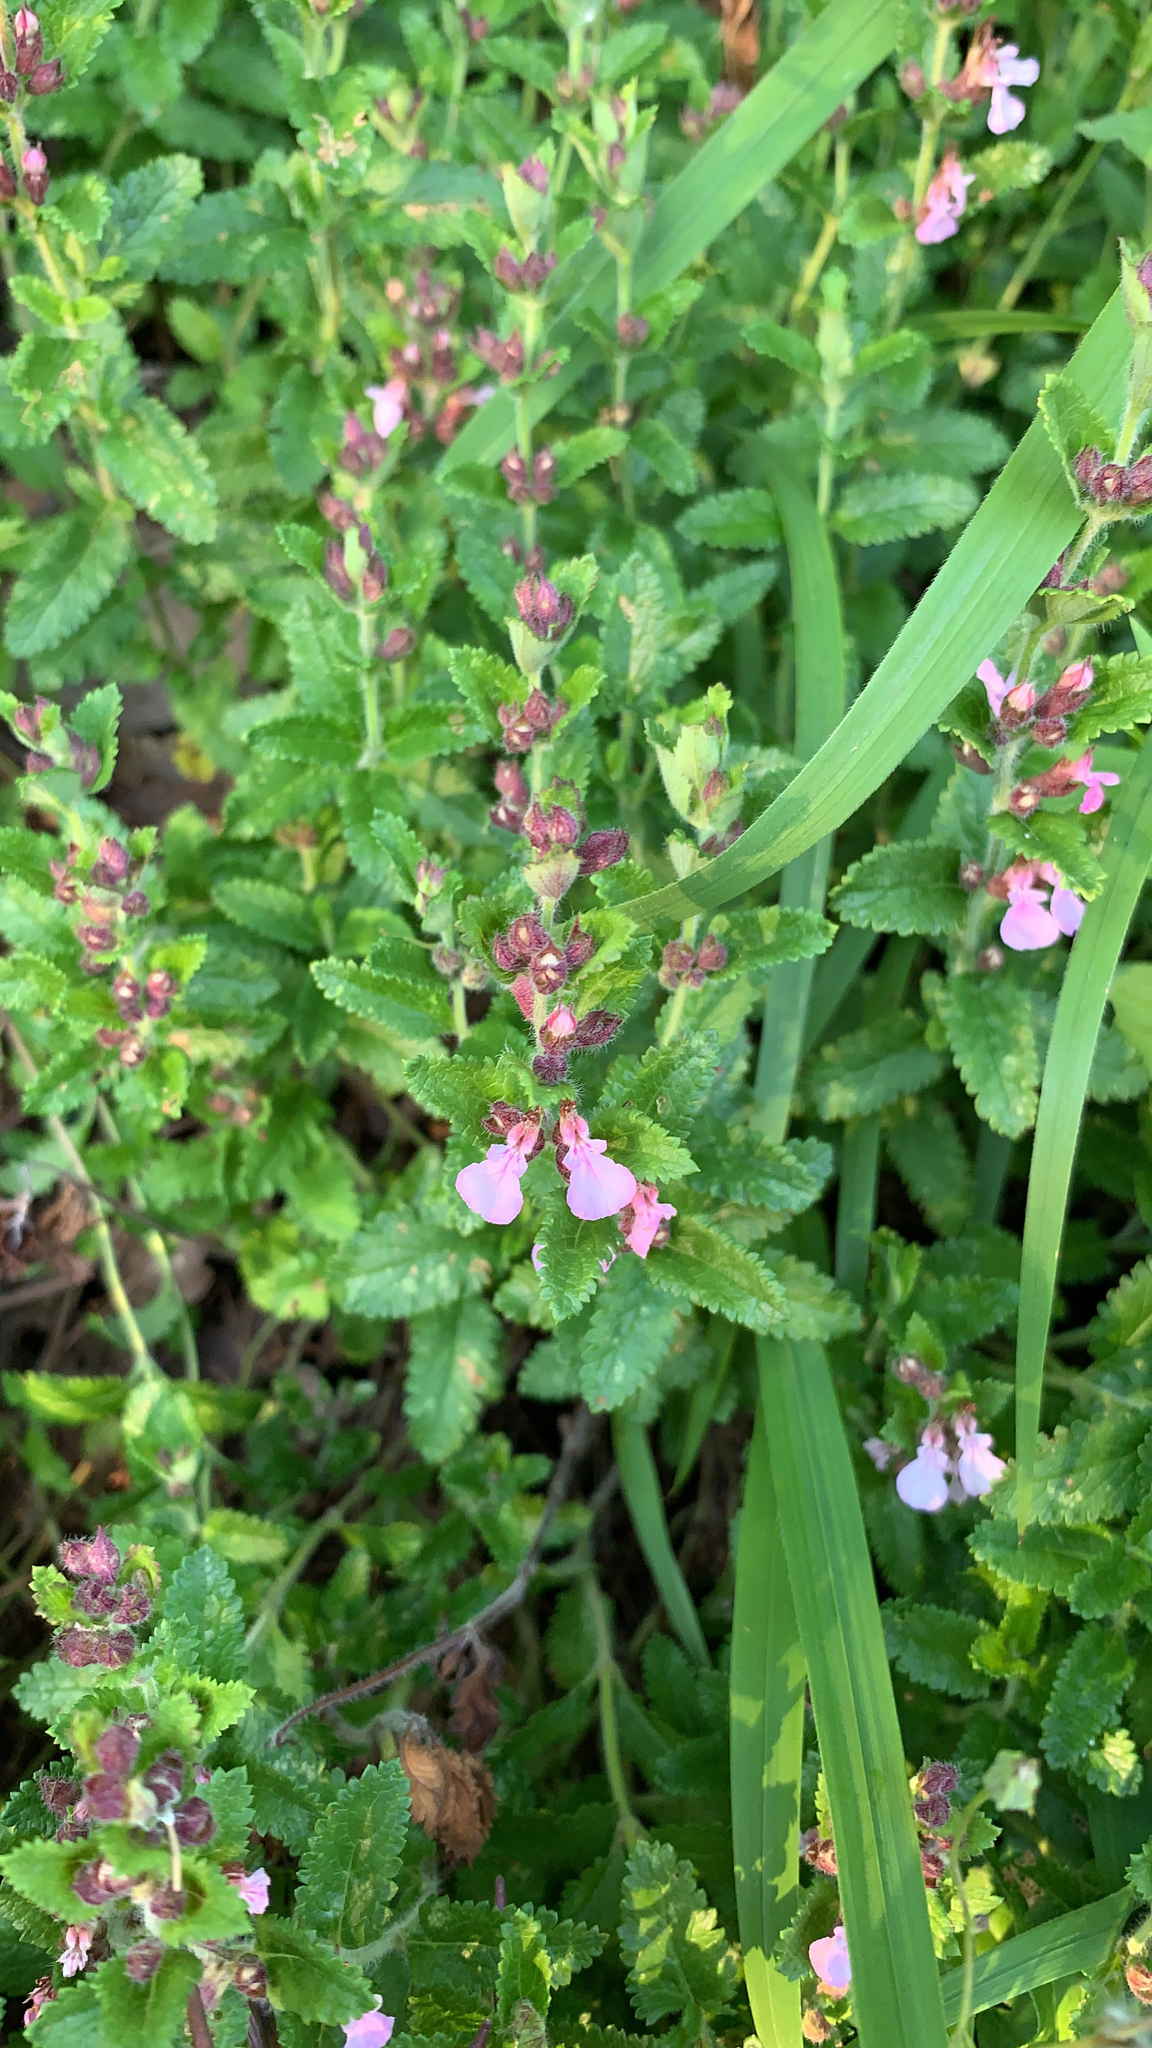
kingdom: Plantae
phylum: Tracheophyta
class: Magnoliopsida
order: Lamiales
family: Lamiaceae
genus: Teucrium
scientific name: Teucrium chamaedrys
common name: Wall germander
